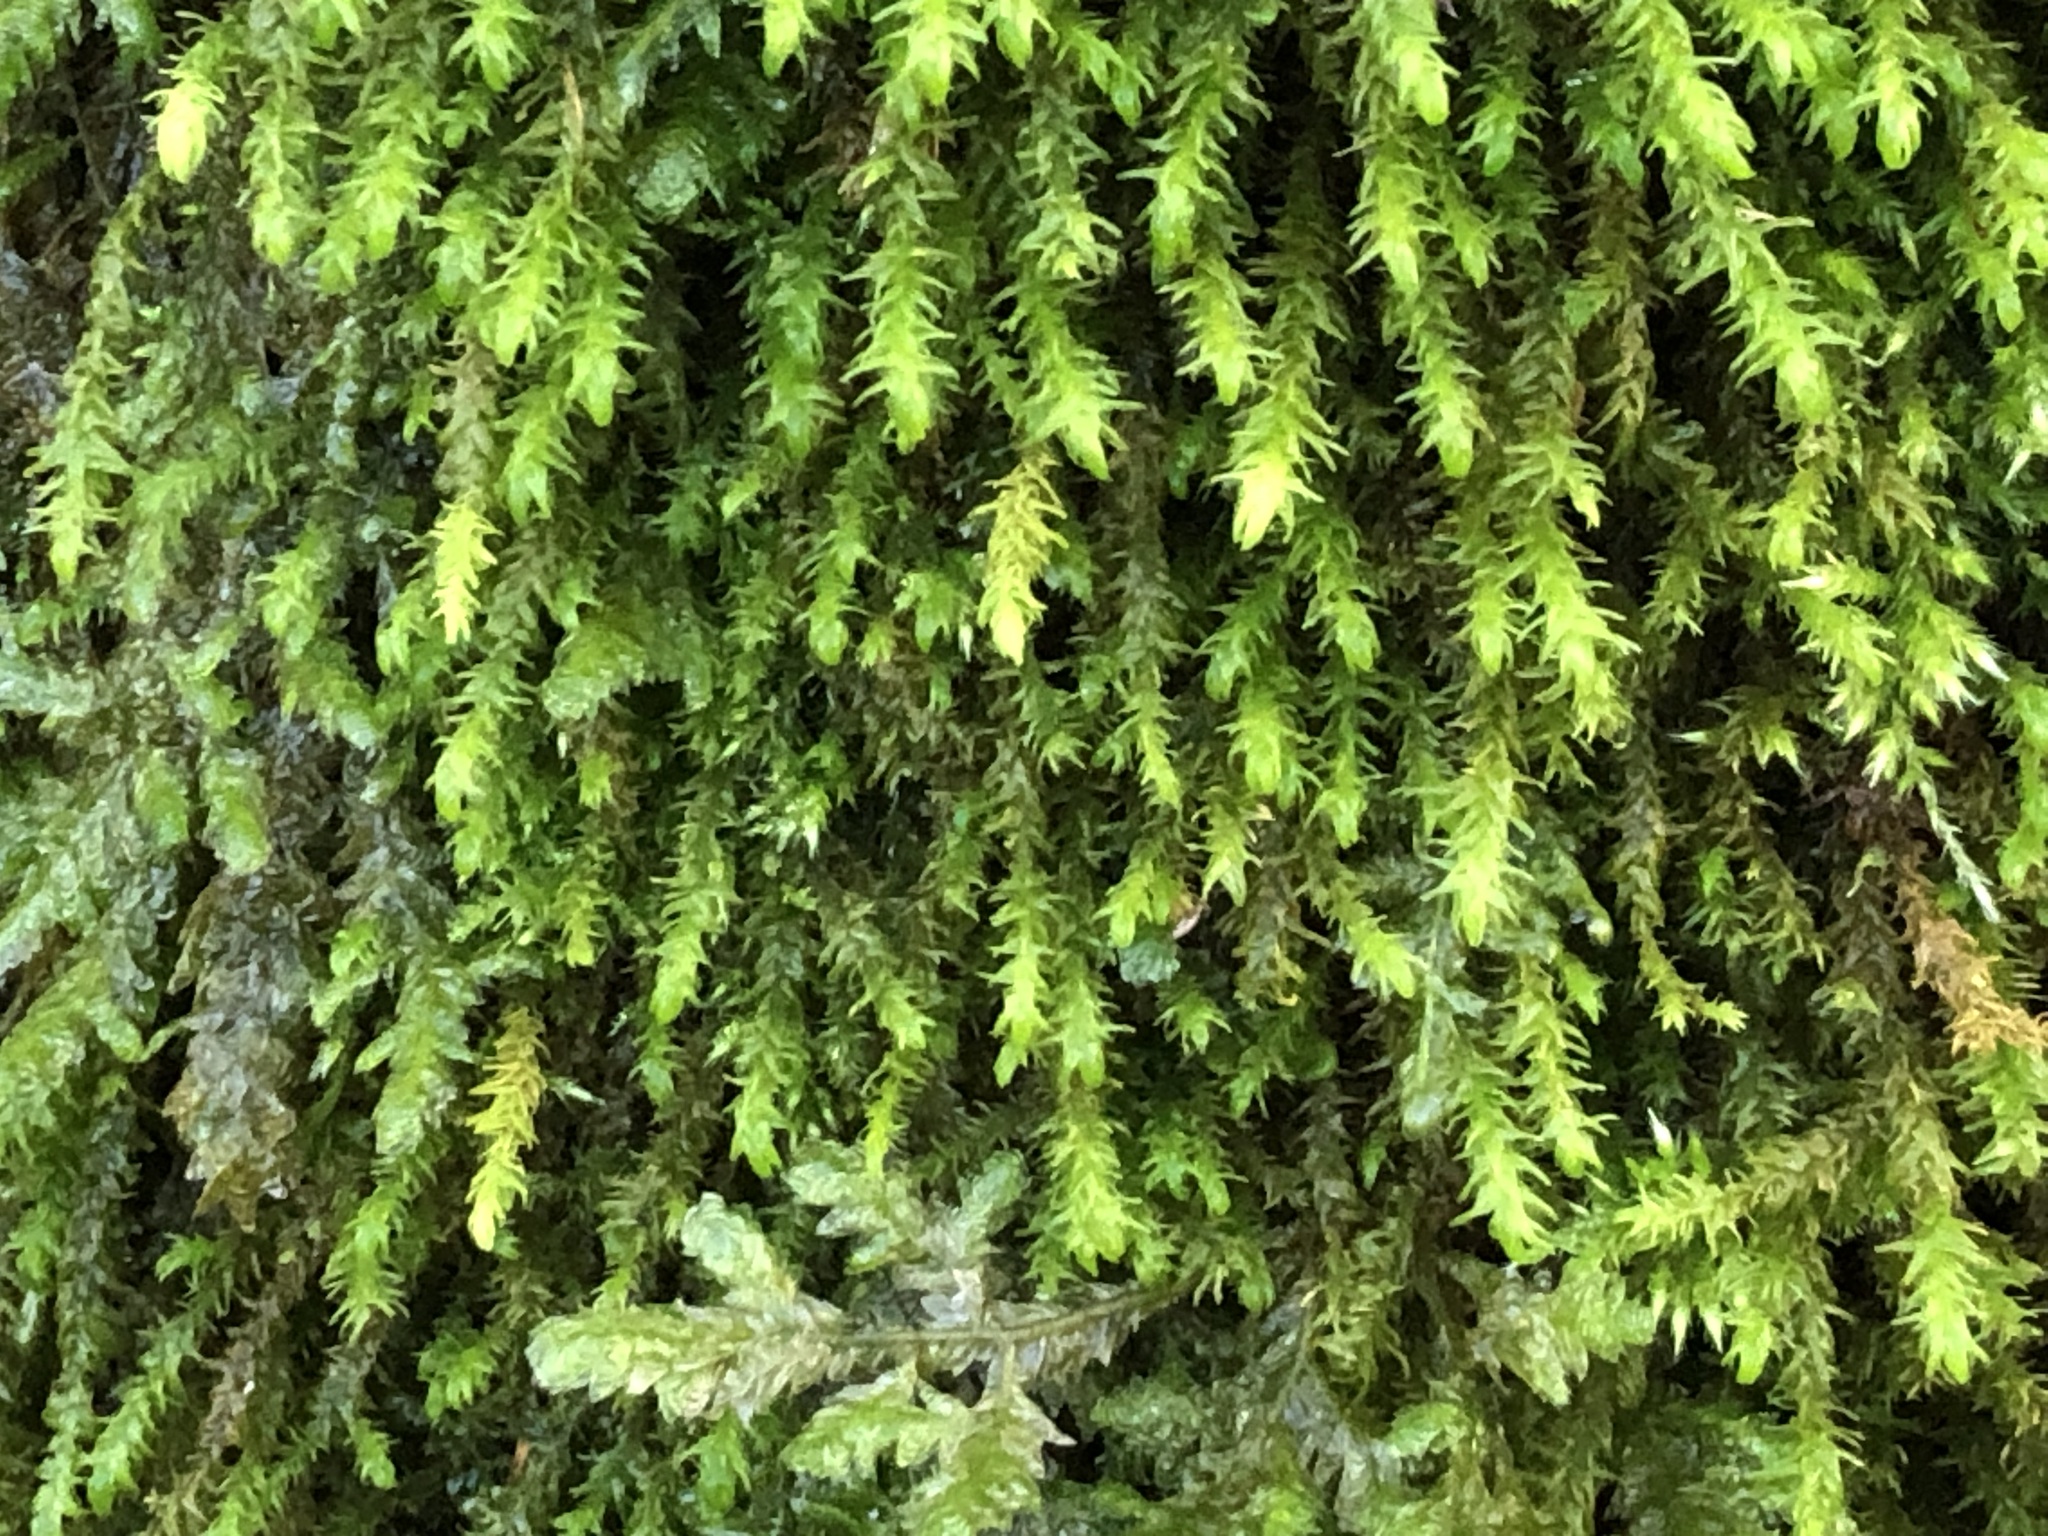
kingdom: Plantae
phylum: Bryophyta
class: Bryopsida
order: Hypnales
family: Anomodontaceae
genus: Anomodon
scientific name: Anomodon viticulosus
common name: Tall anomodon
